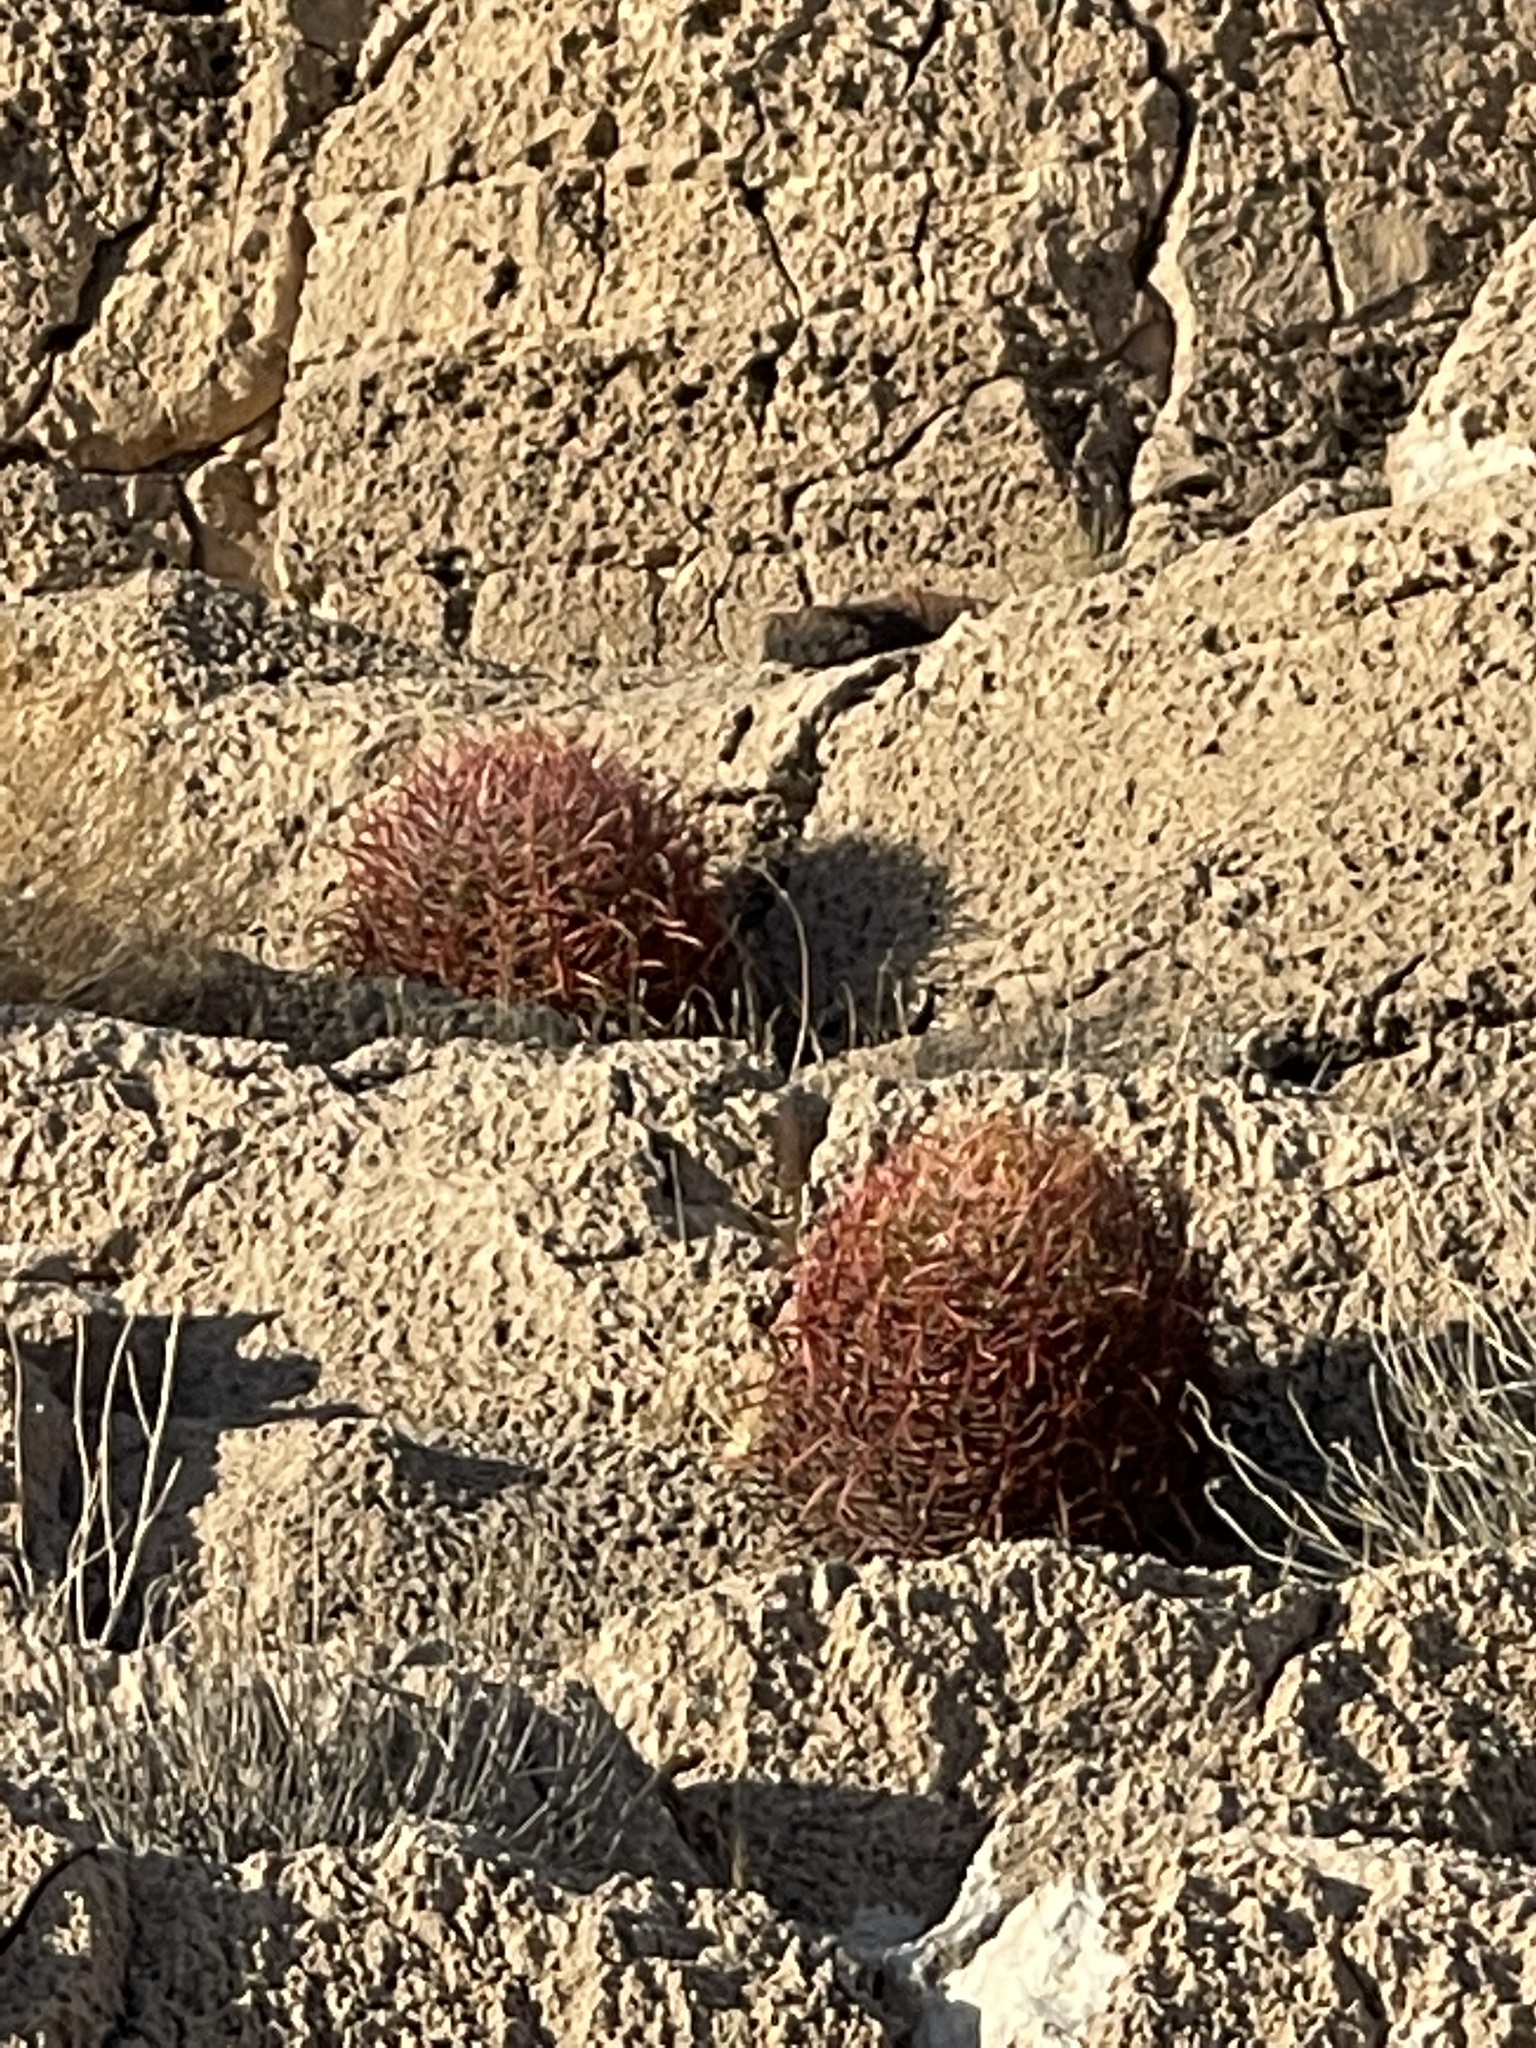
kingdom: Plantae
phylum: Tracheophyta
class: Magnoliopsida
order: Caryophyllales
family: Cactaceae
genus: Ferocactus
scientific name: Ferocactus cylindraceus
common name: California barrel cactus
